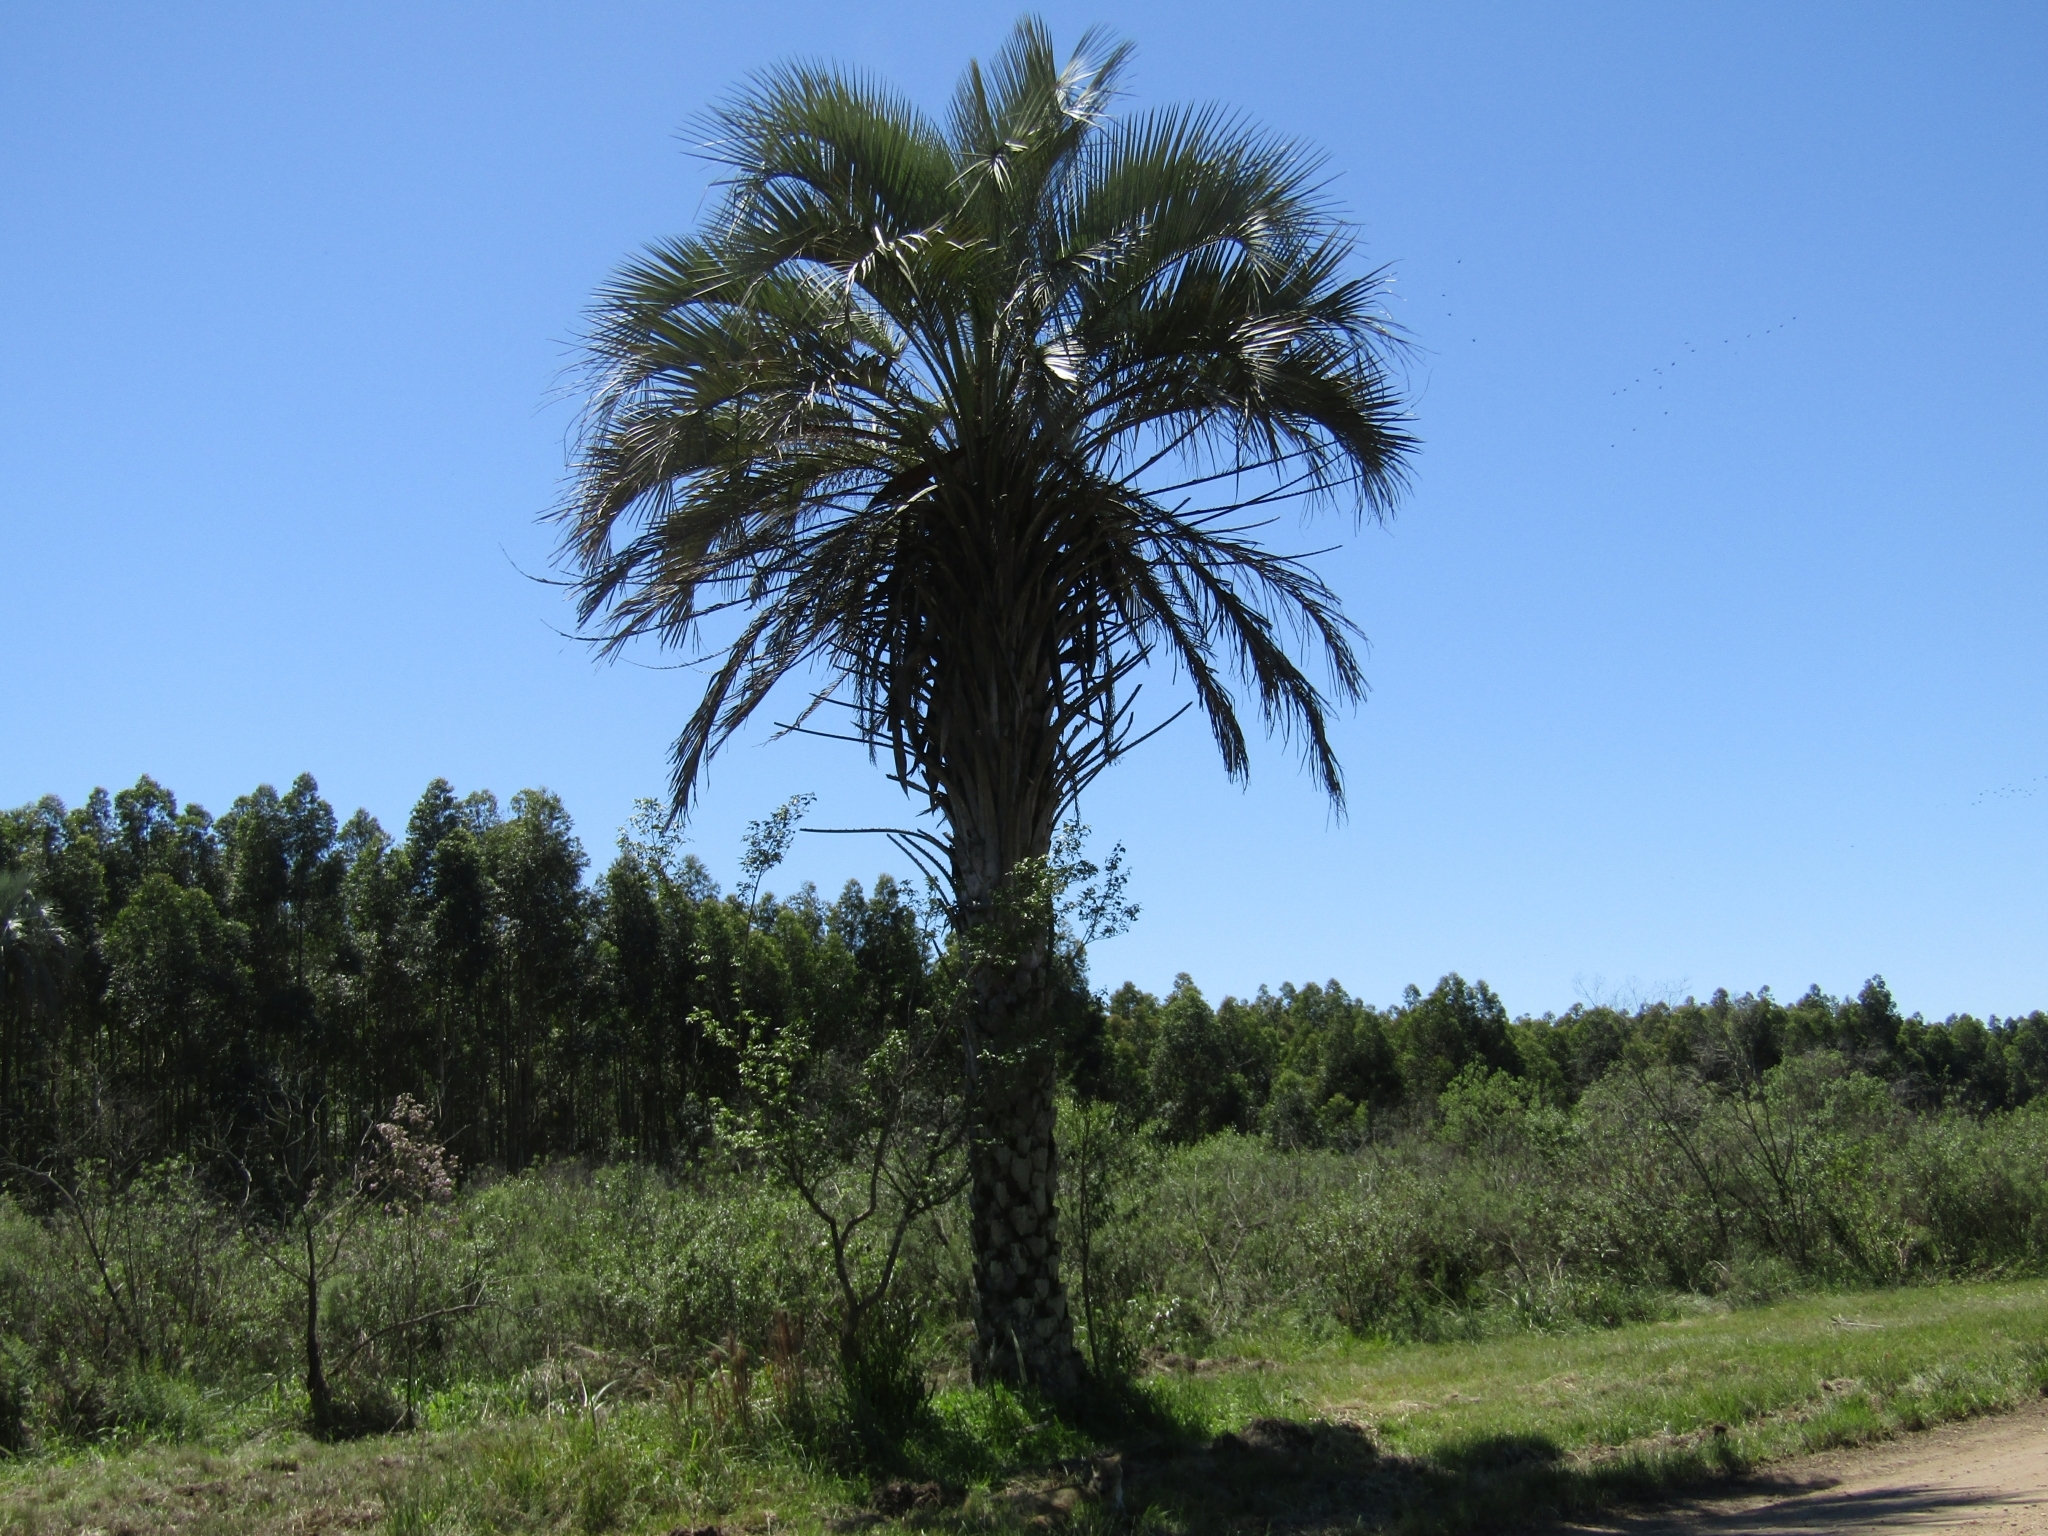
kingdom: Plantae
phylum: Tracheophyta
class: Liliopsida
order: Arecales
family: Arecaceae
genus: Butia
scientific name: Butia yatay
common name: Yatay palm
